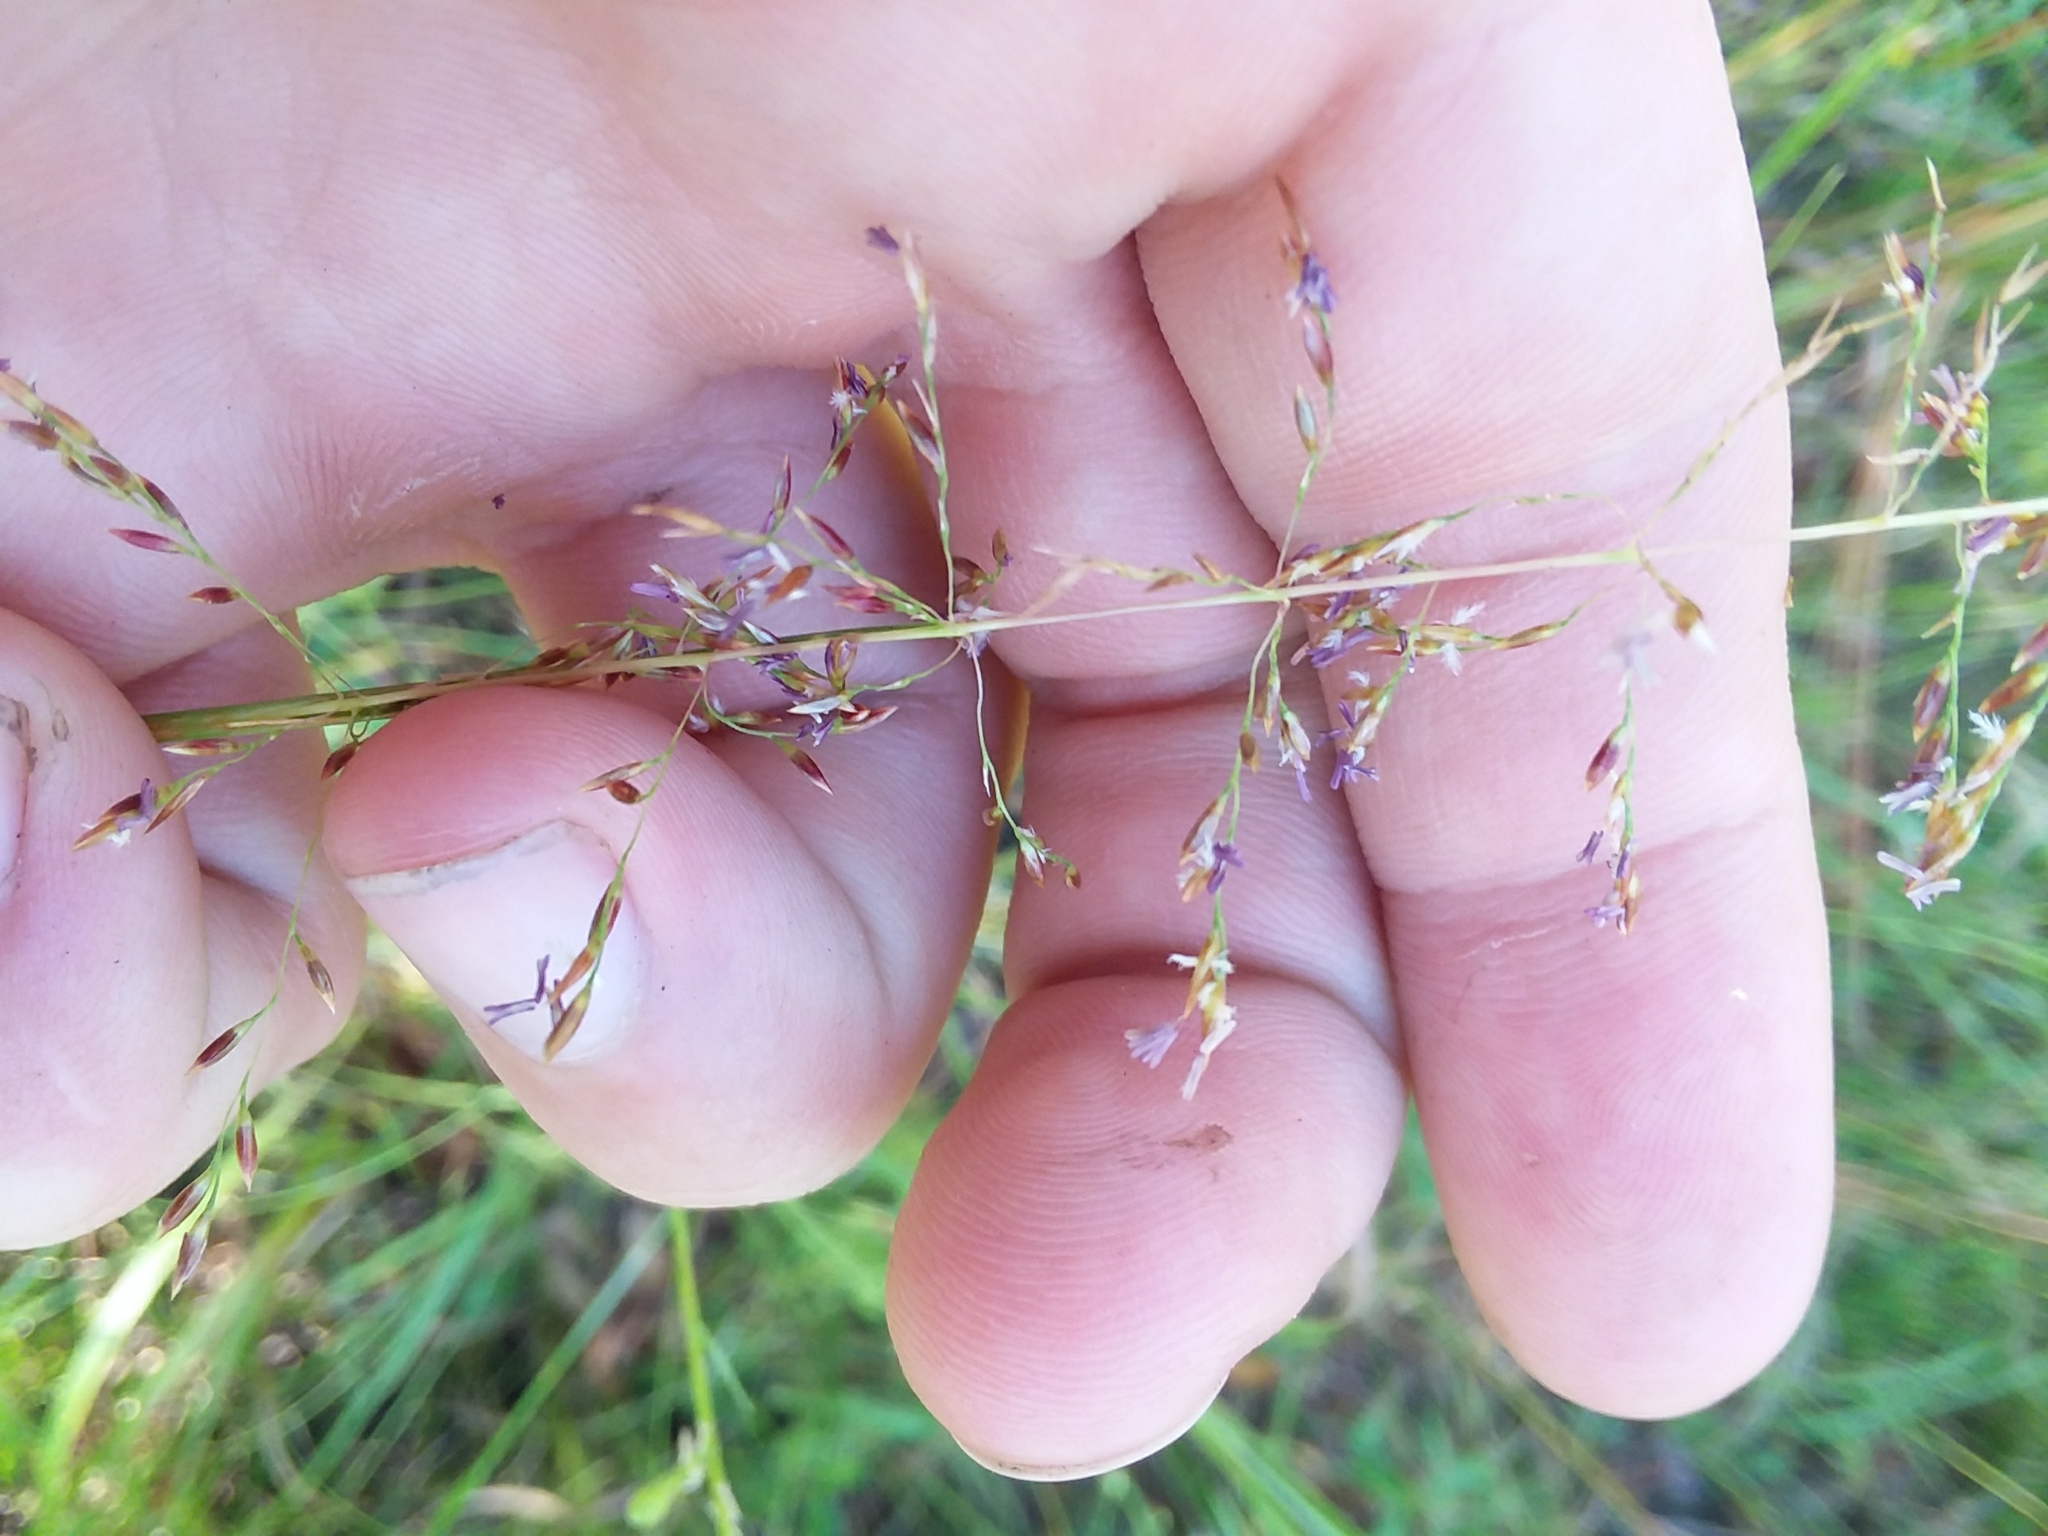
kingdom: Plantae
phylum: Tracheophyta
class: Liliopsida
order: Poales
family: Poaceae
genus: Sporobolus
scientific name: Sporobolus junceus
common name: Lizard grass
